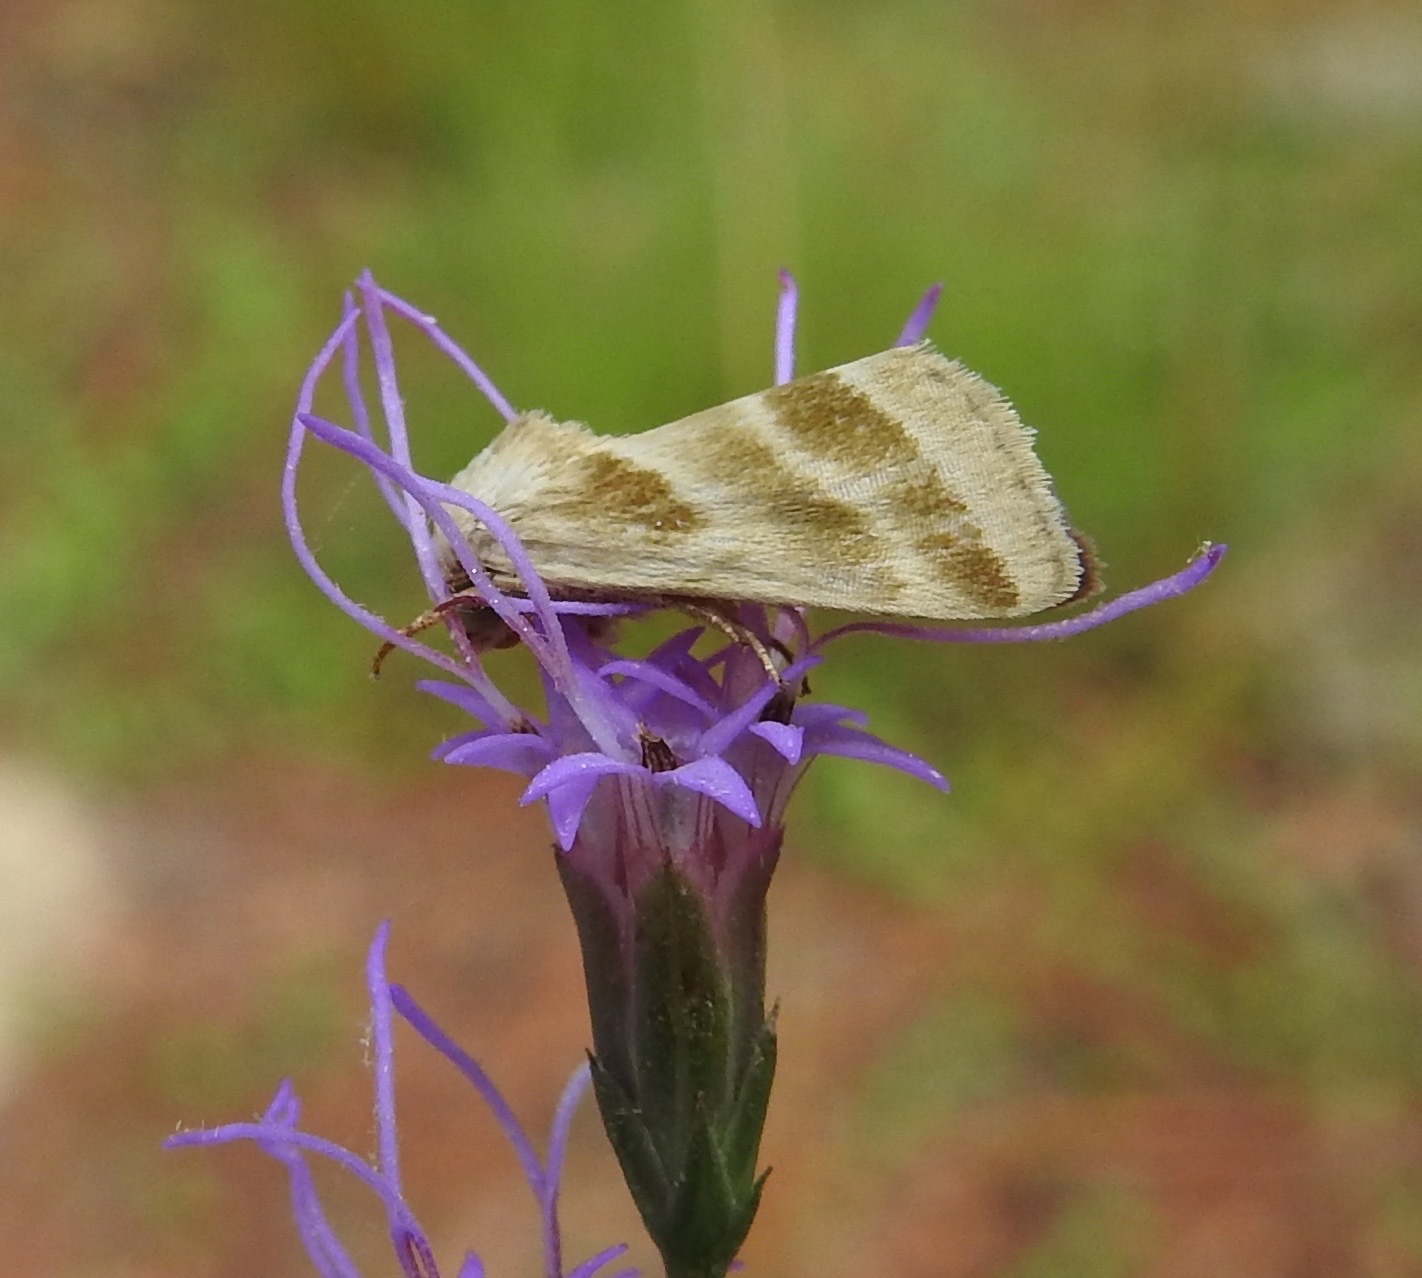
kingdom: Animalia
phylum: Arthropoda
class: Insecta
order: Lepidoptera
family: Noctuidae
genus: Schinia
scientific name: Schinia trifascia
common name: Three-lined flower moth
